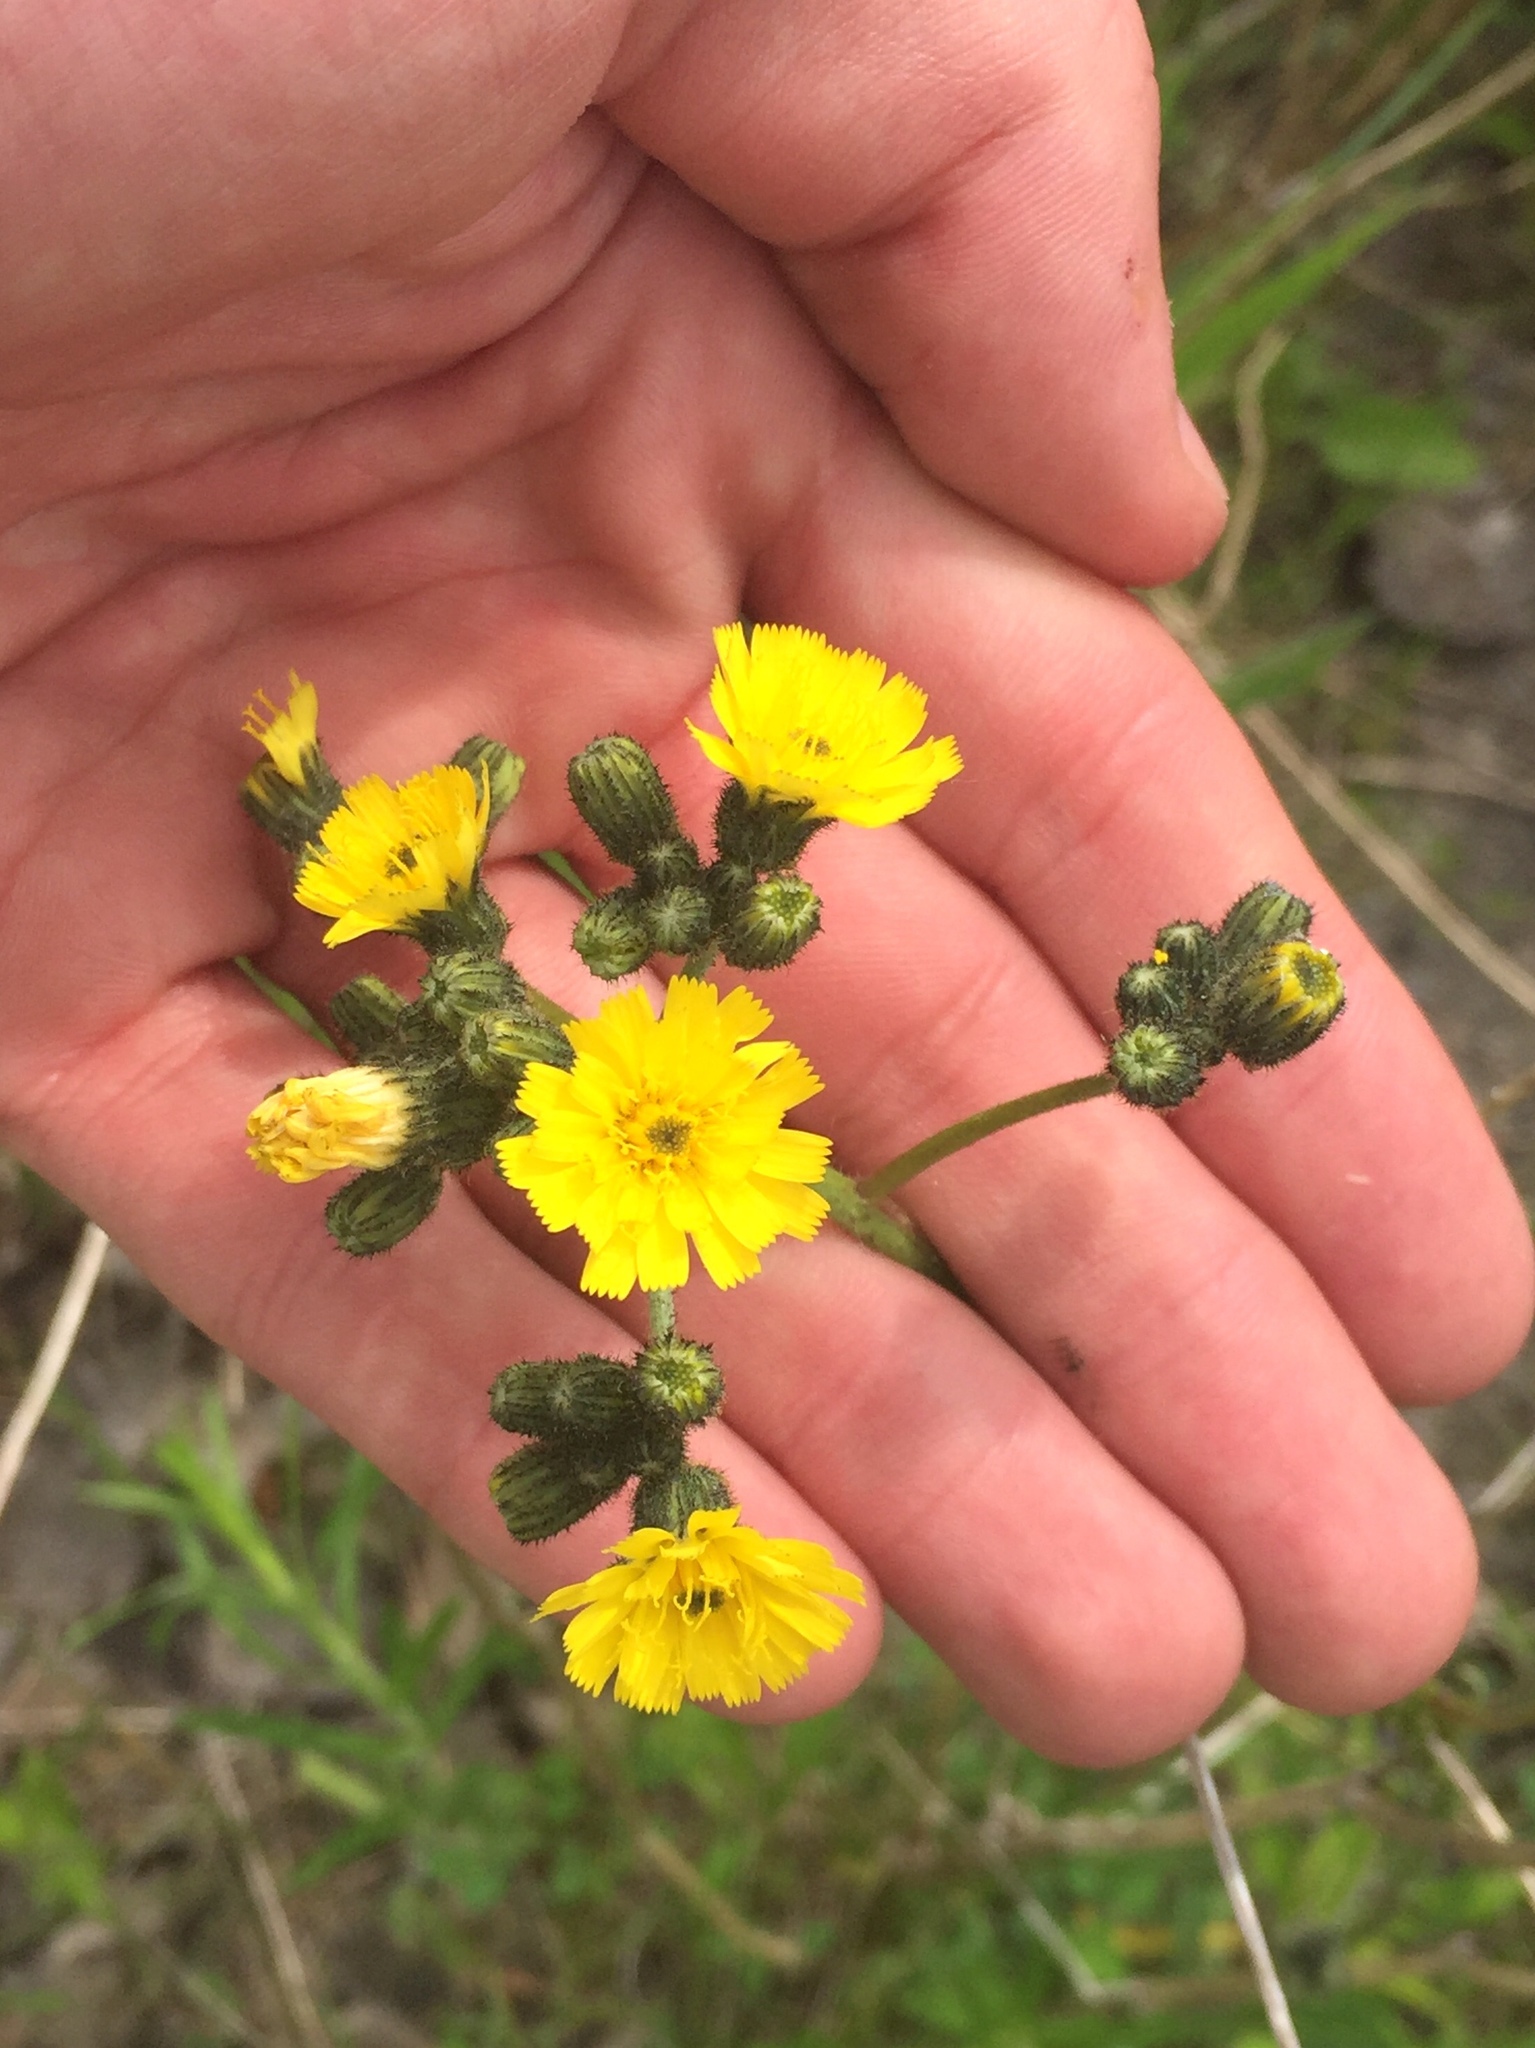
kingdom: Plantae
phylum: Tracheophyta
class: Magnoliopsida
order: Asterales
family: Asteraceae
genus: Pilosella
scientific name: Pilosella caespitosa
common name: Yellow fox-and-cubs
